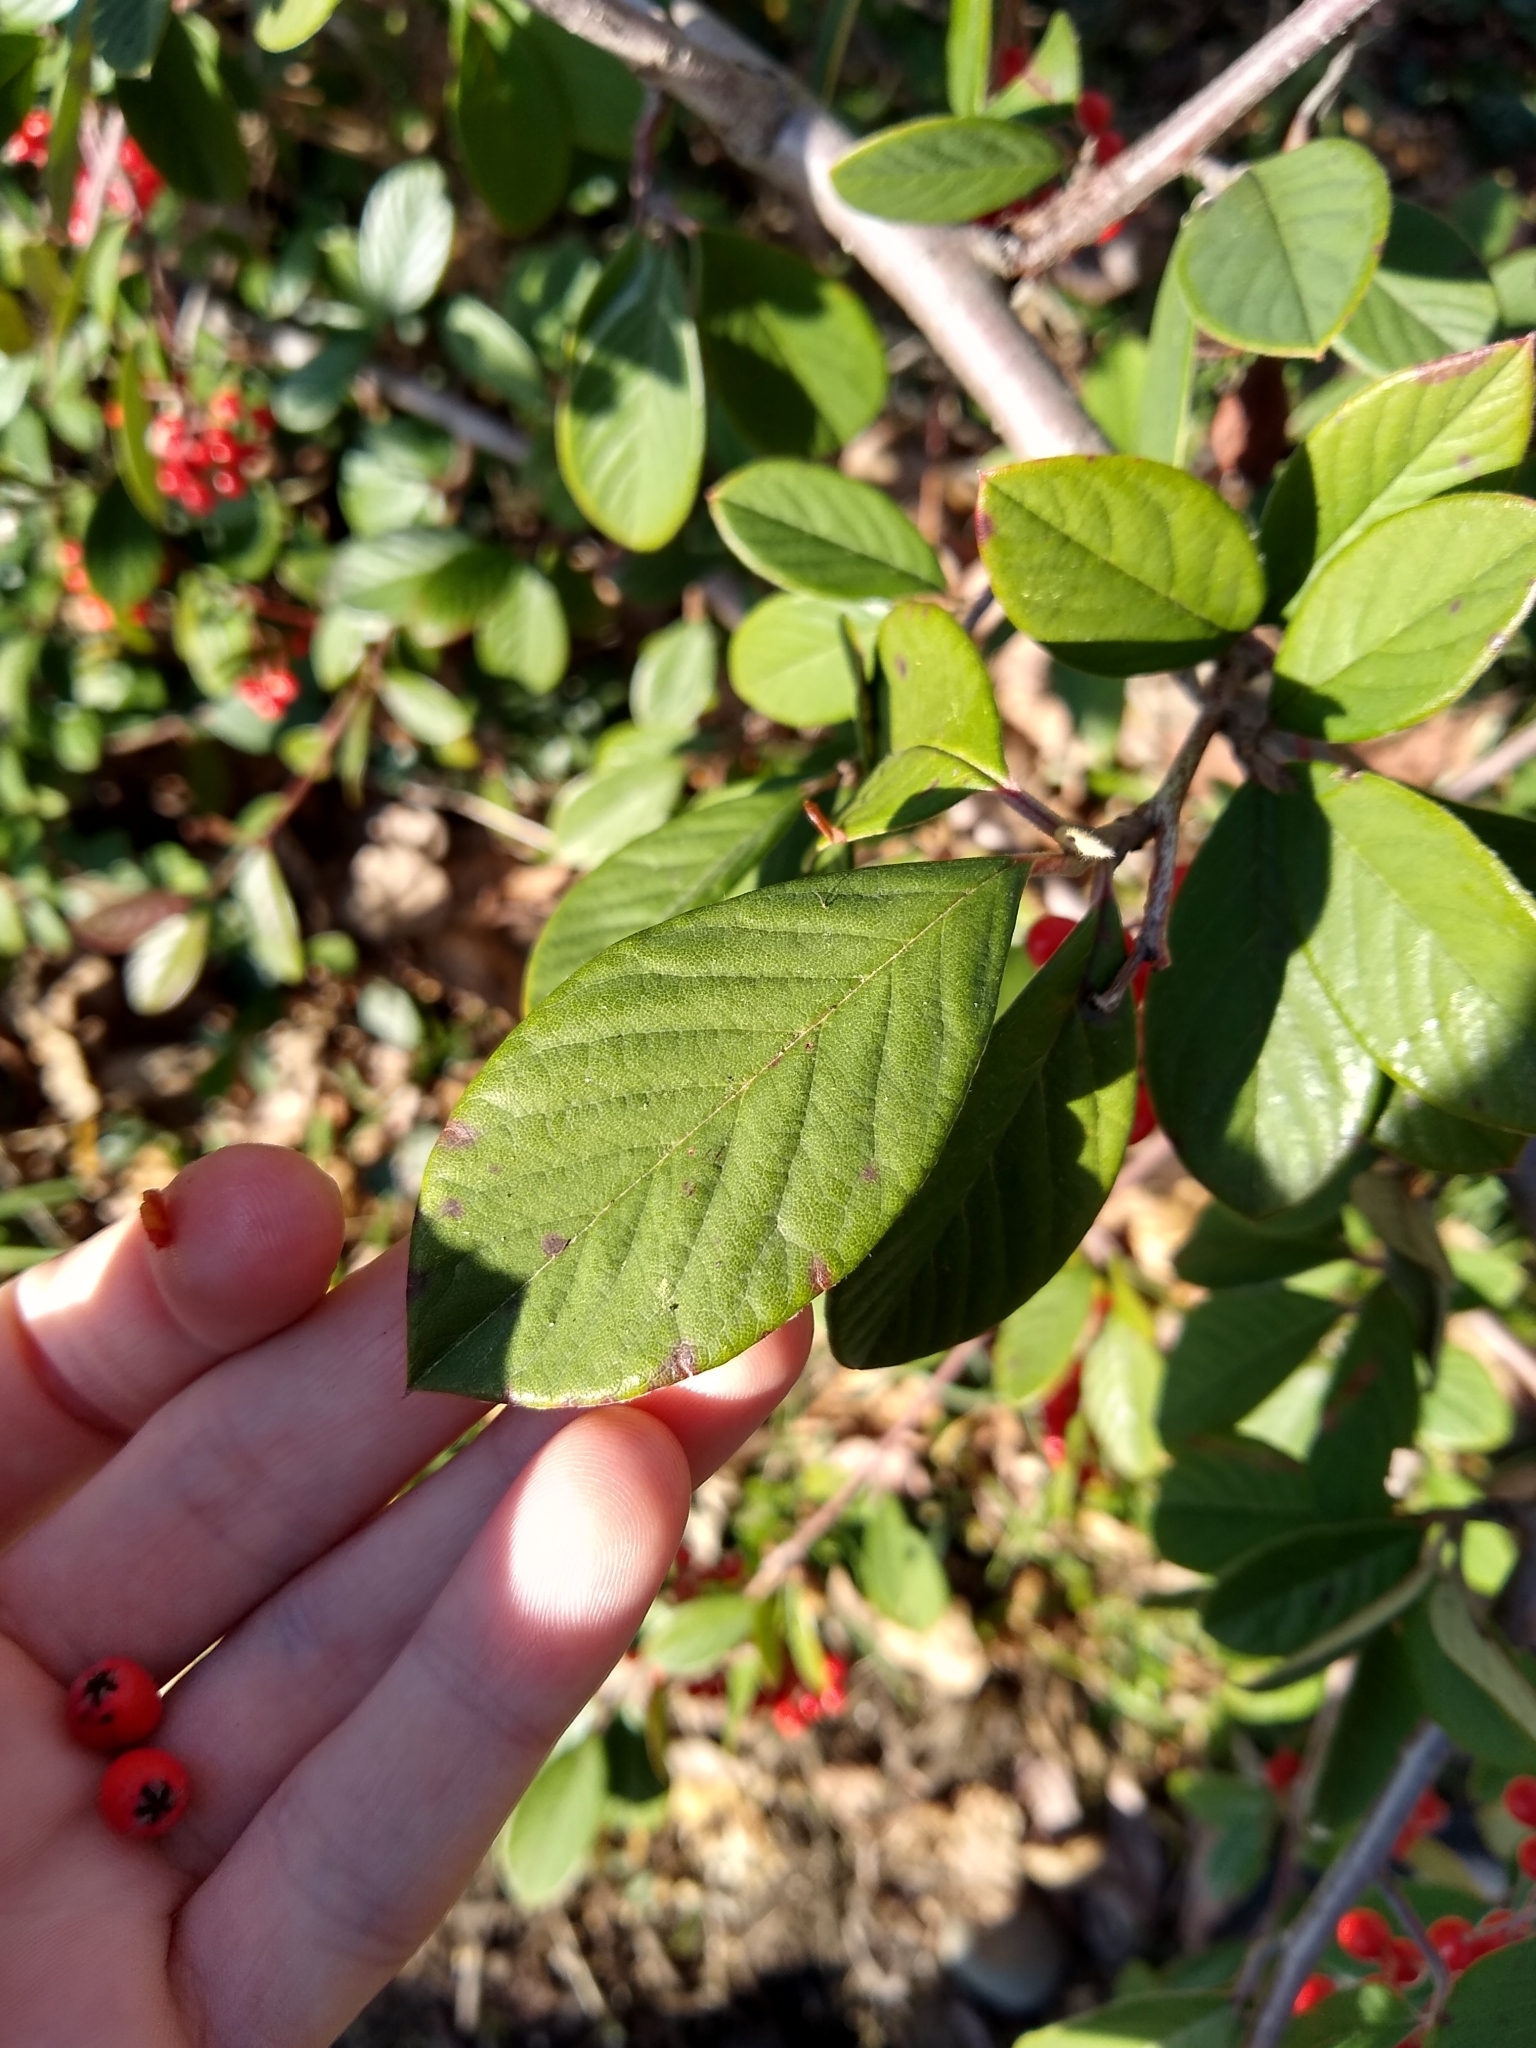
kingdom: Plantae
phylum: Tracheophyta
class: Magnoliopsida
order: Rosales
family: Rosaceae
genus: Cotoneaster
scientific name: Cotoneaster coriaceus
